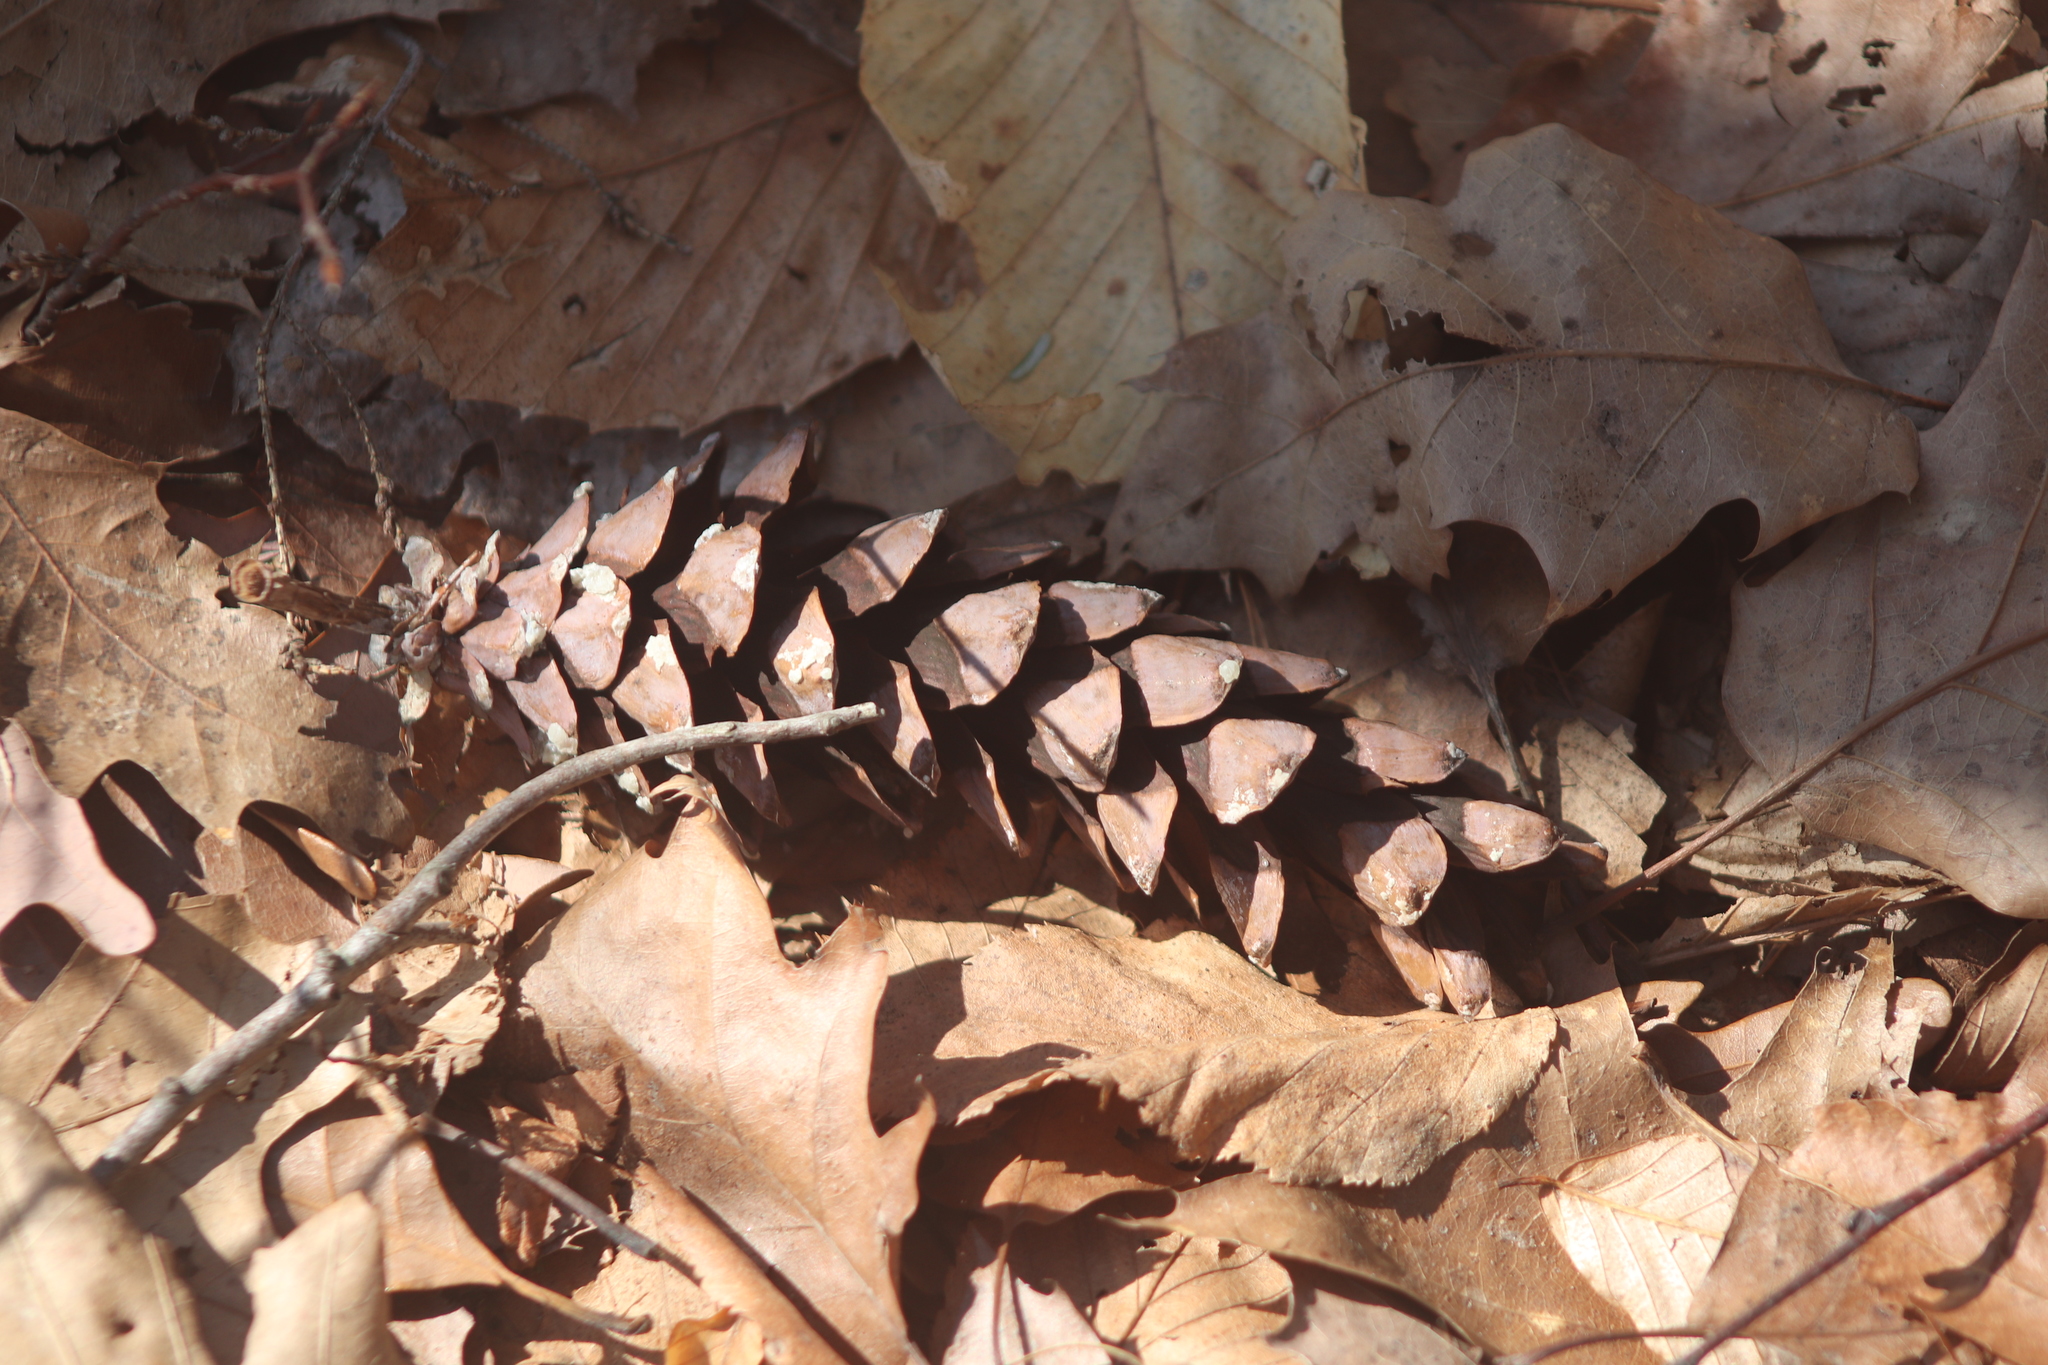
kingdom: Plantae
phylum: Tracheophyta
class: Pinopsida
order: Pinales
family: Pinaceae
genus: Pinus
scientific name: Pinus strobus
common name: Weymouth pine
